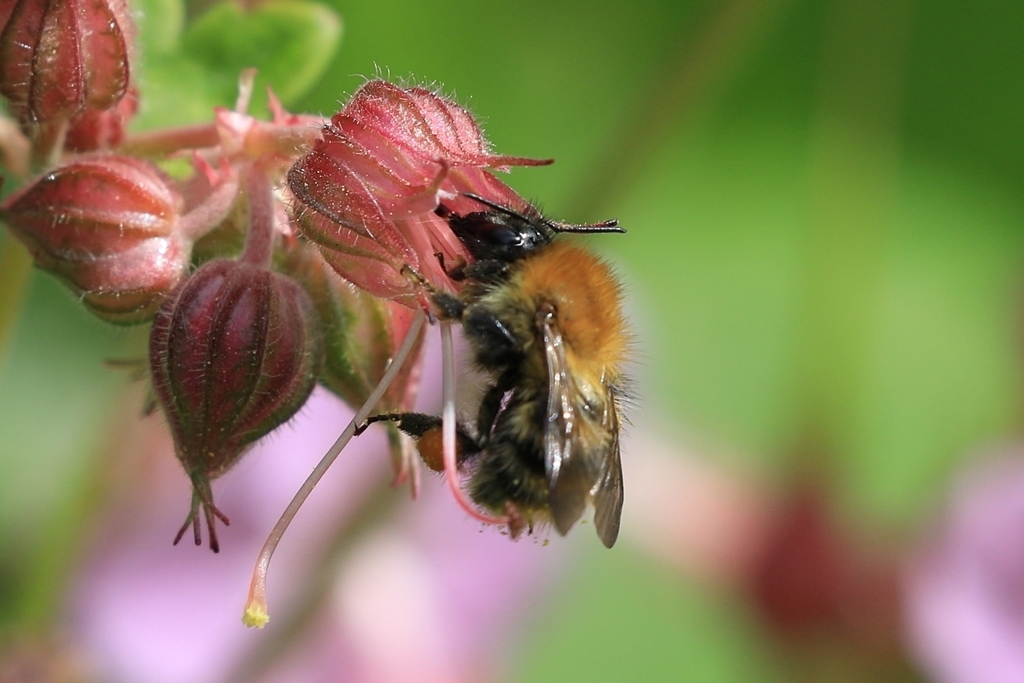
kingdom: Animalia
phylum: Arthropoda
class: Insecta
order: Hymenoptera
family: Apidae
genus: Bombus
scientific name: Bombus pascuorum
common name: Common carder bee
